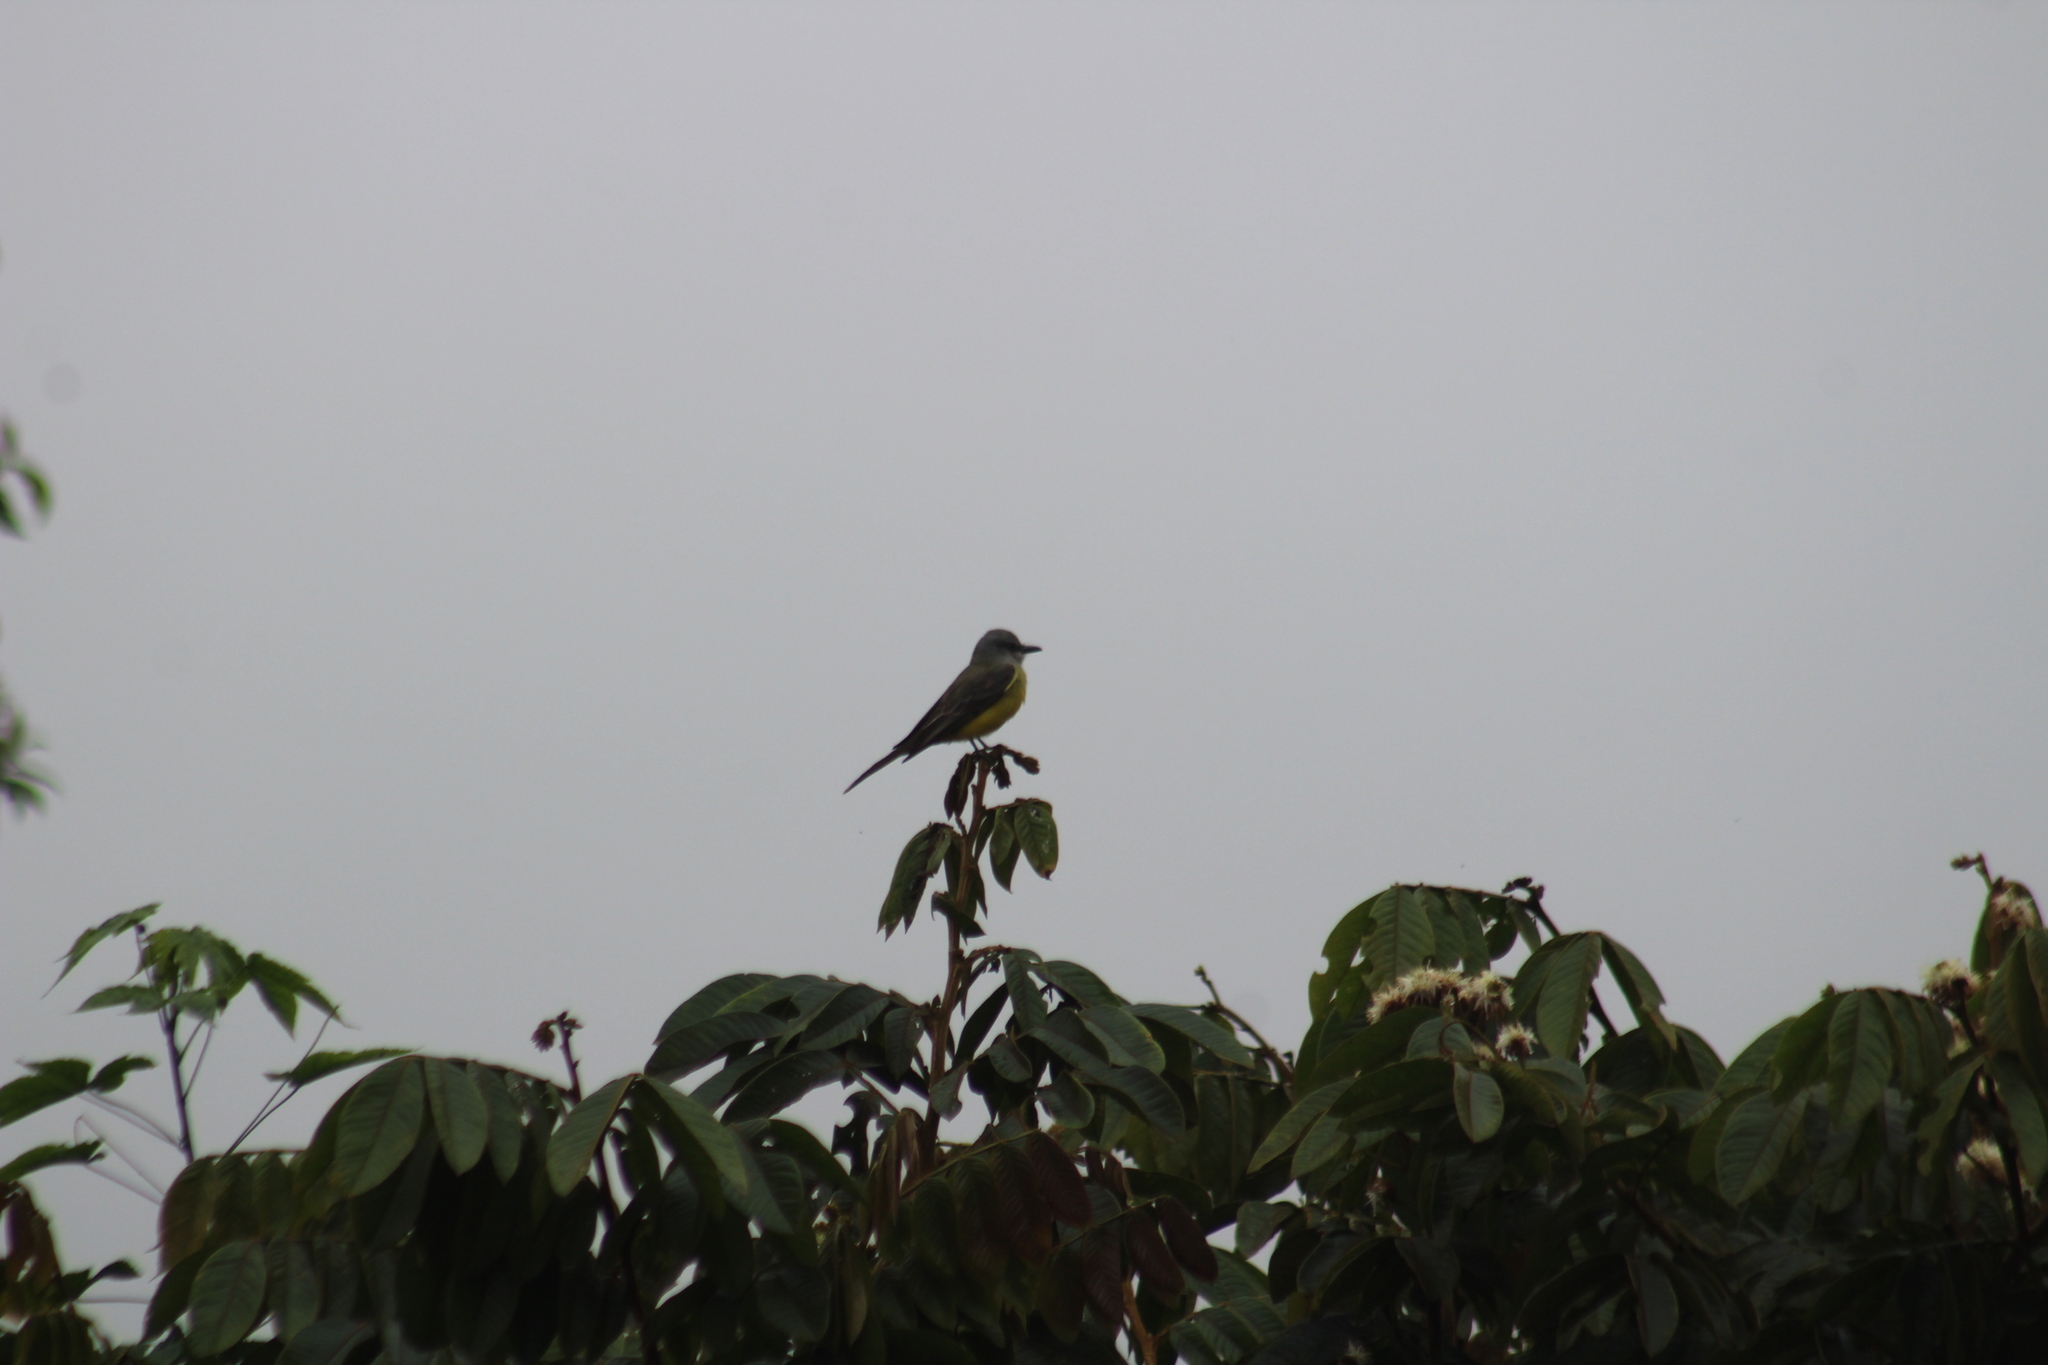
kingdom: Animalia
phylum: Chordata
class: Aves
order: Passeriformes
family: Tyrannidae
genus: Tyrannus
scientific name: Tyrannus melancholicus
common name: Tropical kingbird
